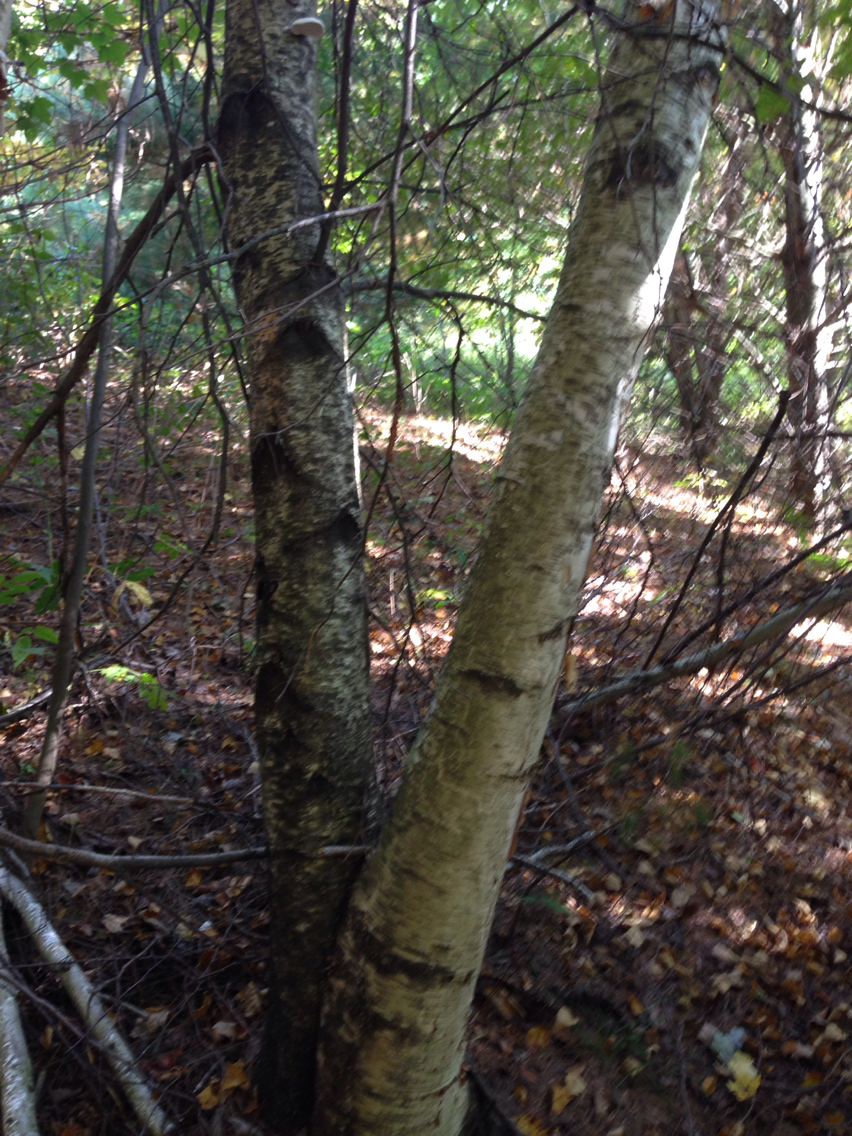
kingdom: Plantae
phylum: Tracheophyta
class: Magnoliopsida
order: Fagales
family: Betulaceae
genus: Betula
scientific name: Betula populifolia
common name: Fire birch
